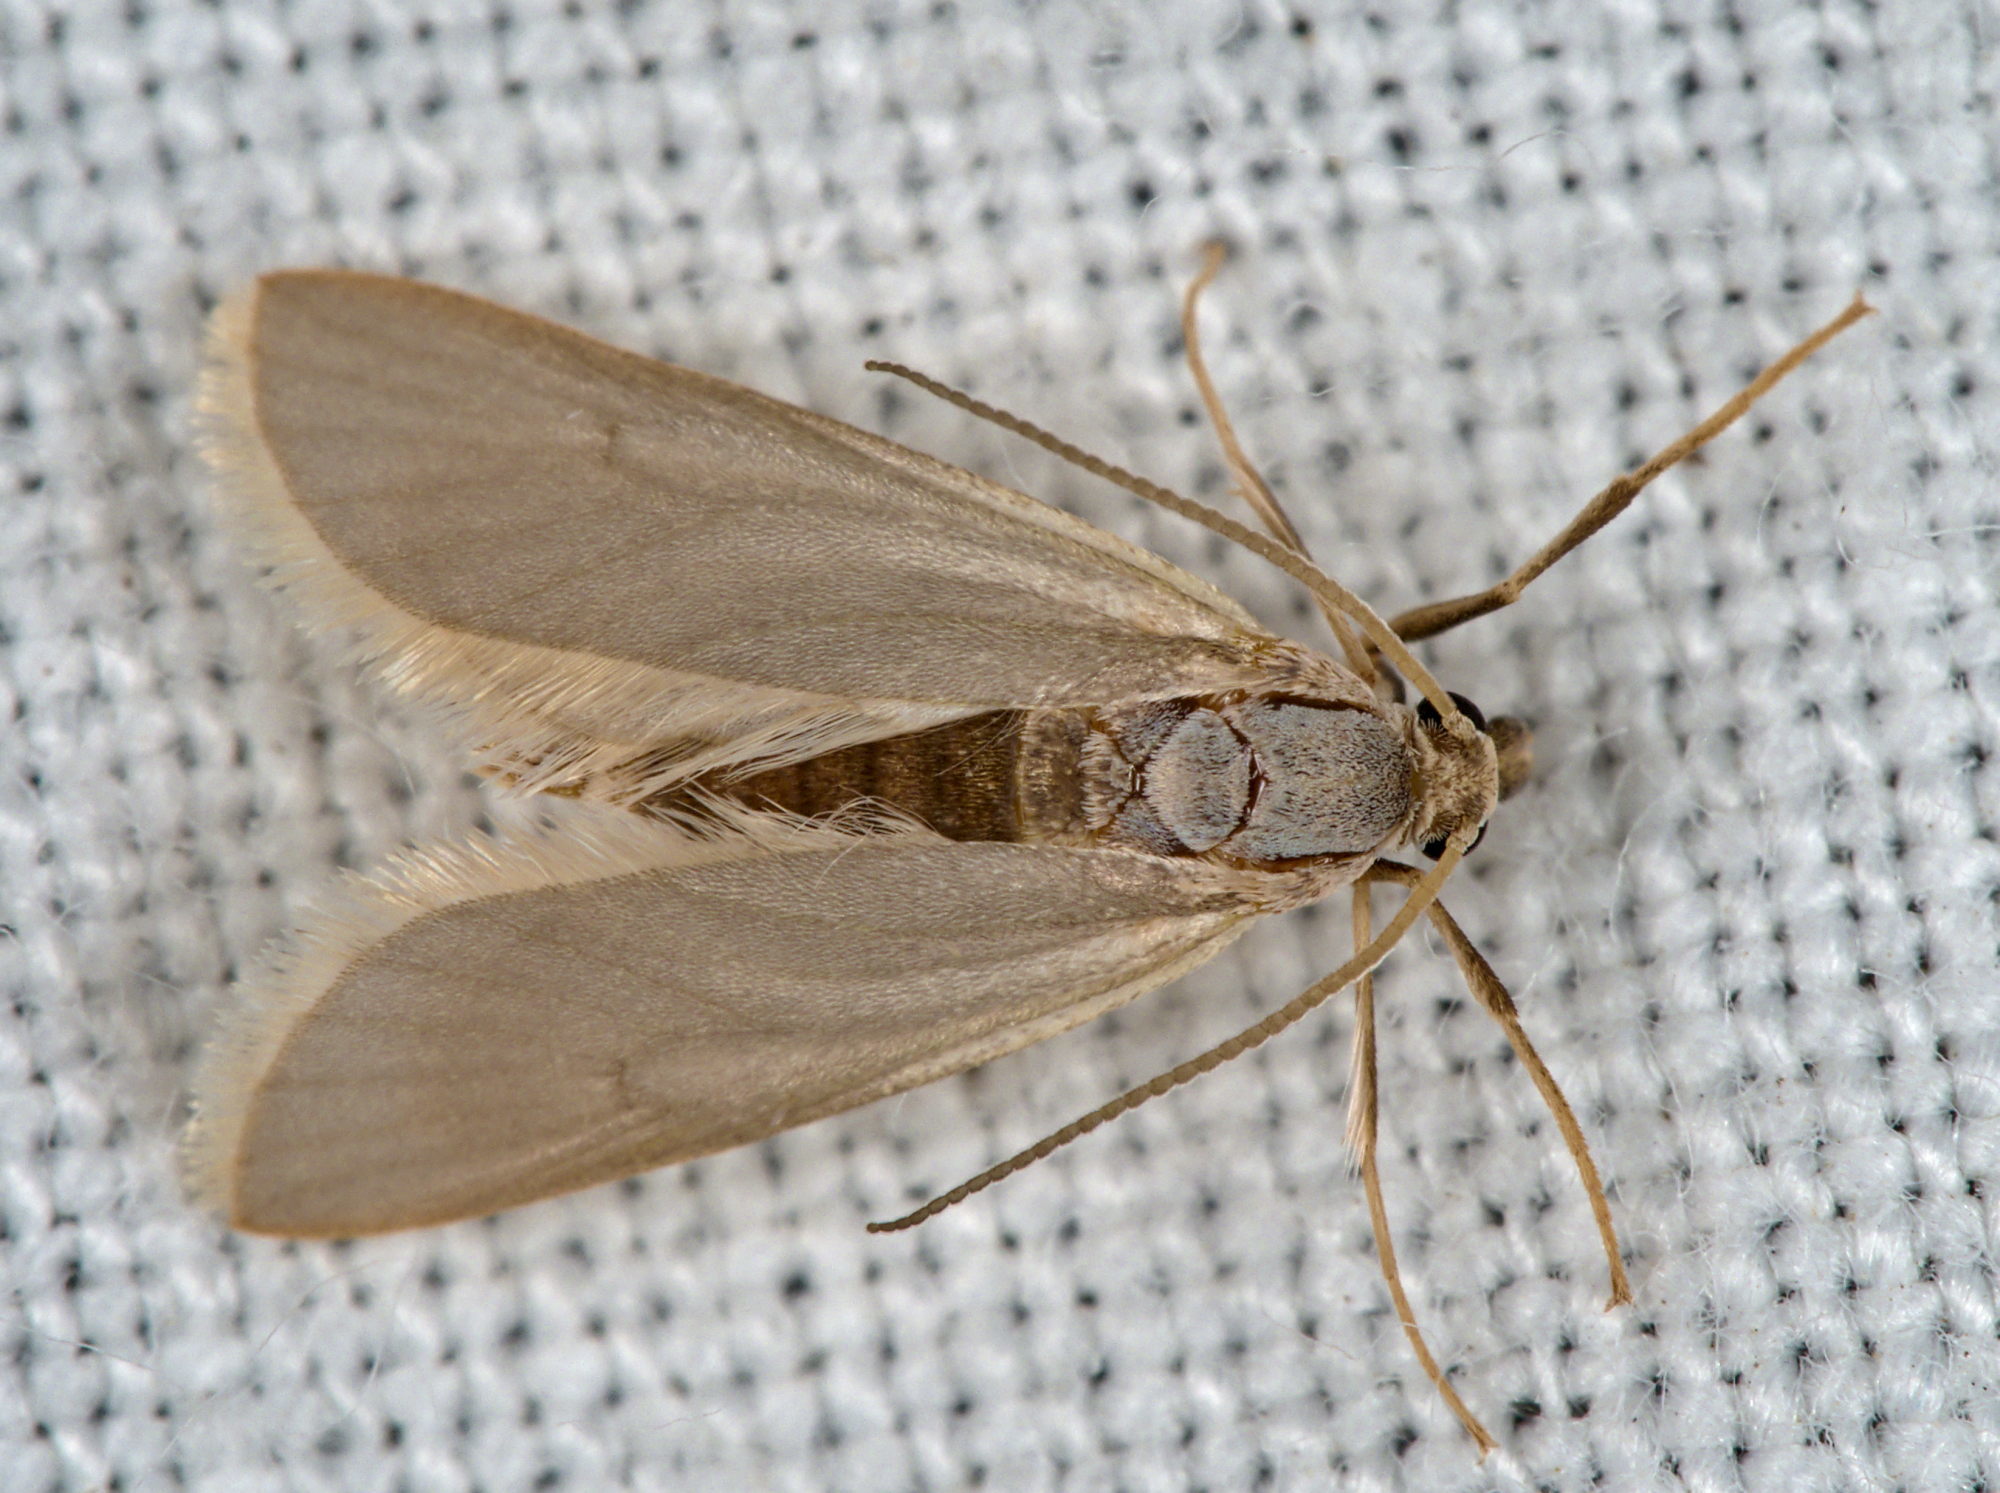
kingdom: Animalia
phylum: Arthropoda
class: Insecta
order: Lepidoptera
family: Crambidae
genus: Acentria
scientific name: Acentria ephemerella
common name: European water moth
